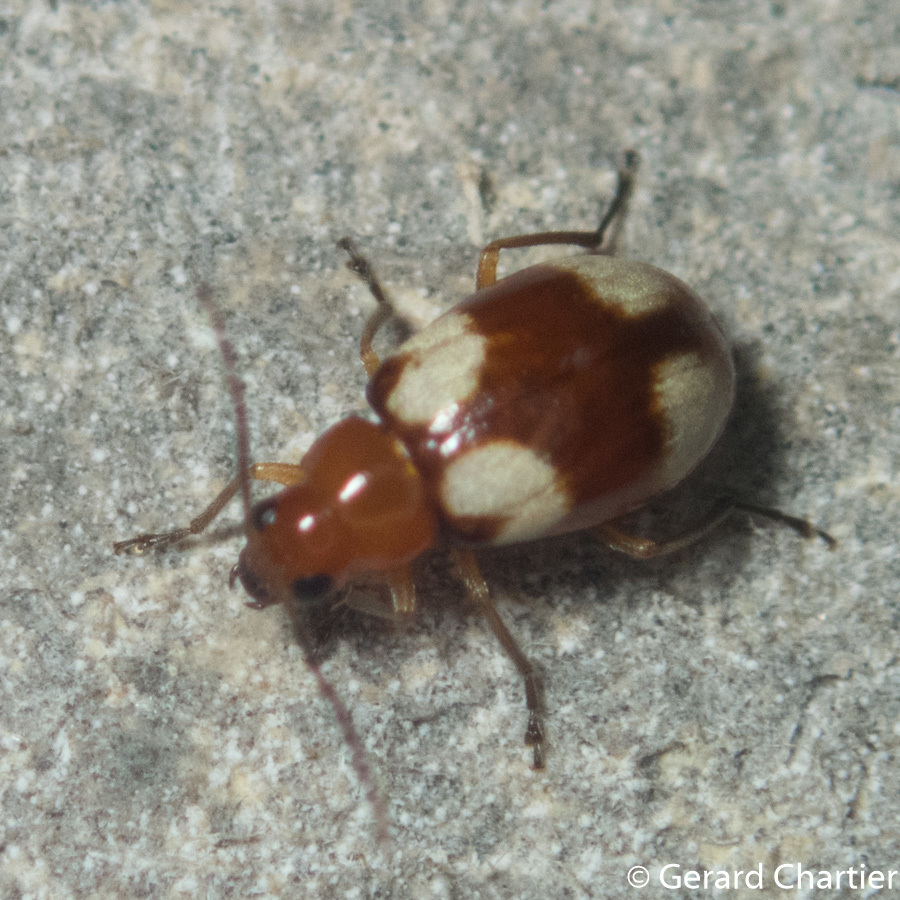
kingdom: Animalia
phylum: Arthropoda
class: Insecta
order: Coleoptera
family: Chrysomelidae
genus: Monolepta
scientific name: Monolepta signata
